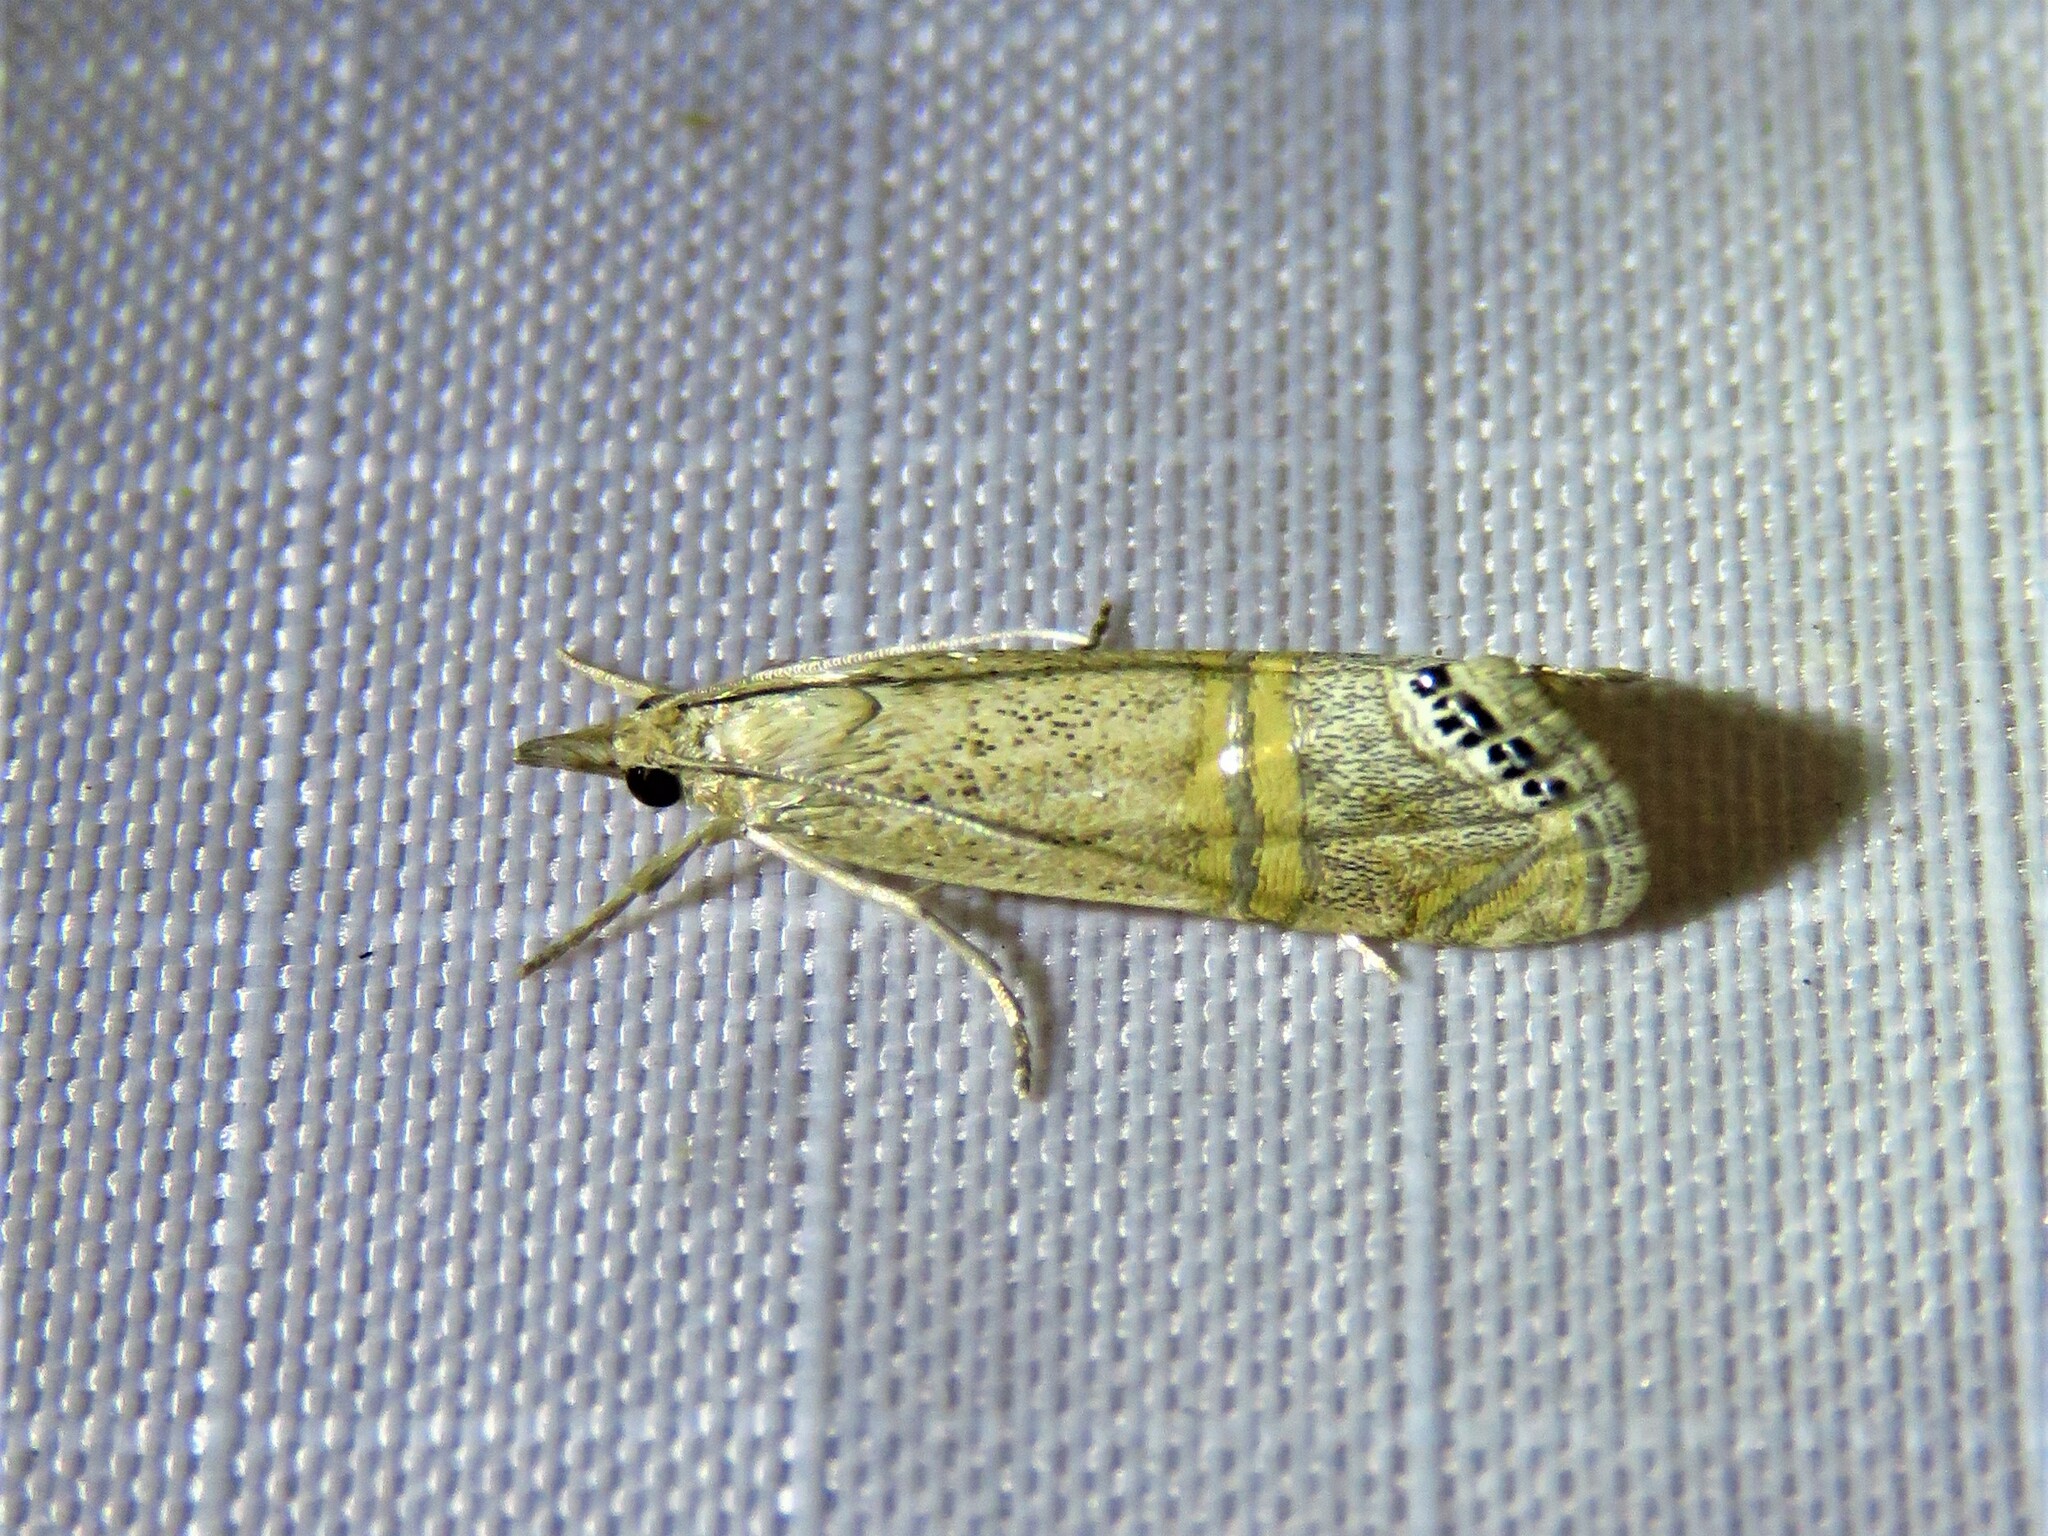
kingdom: Animalia
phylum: Arthropoda
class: Insecta
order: Lepidoptera
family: Crambidae
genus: Euchromius
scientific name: Euchromius ocellea
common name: Necklace veneer moth
